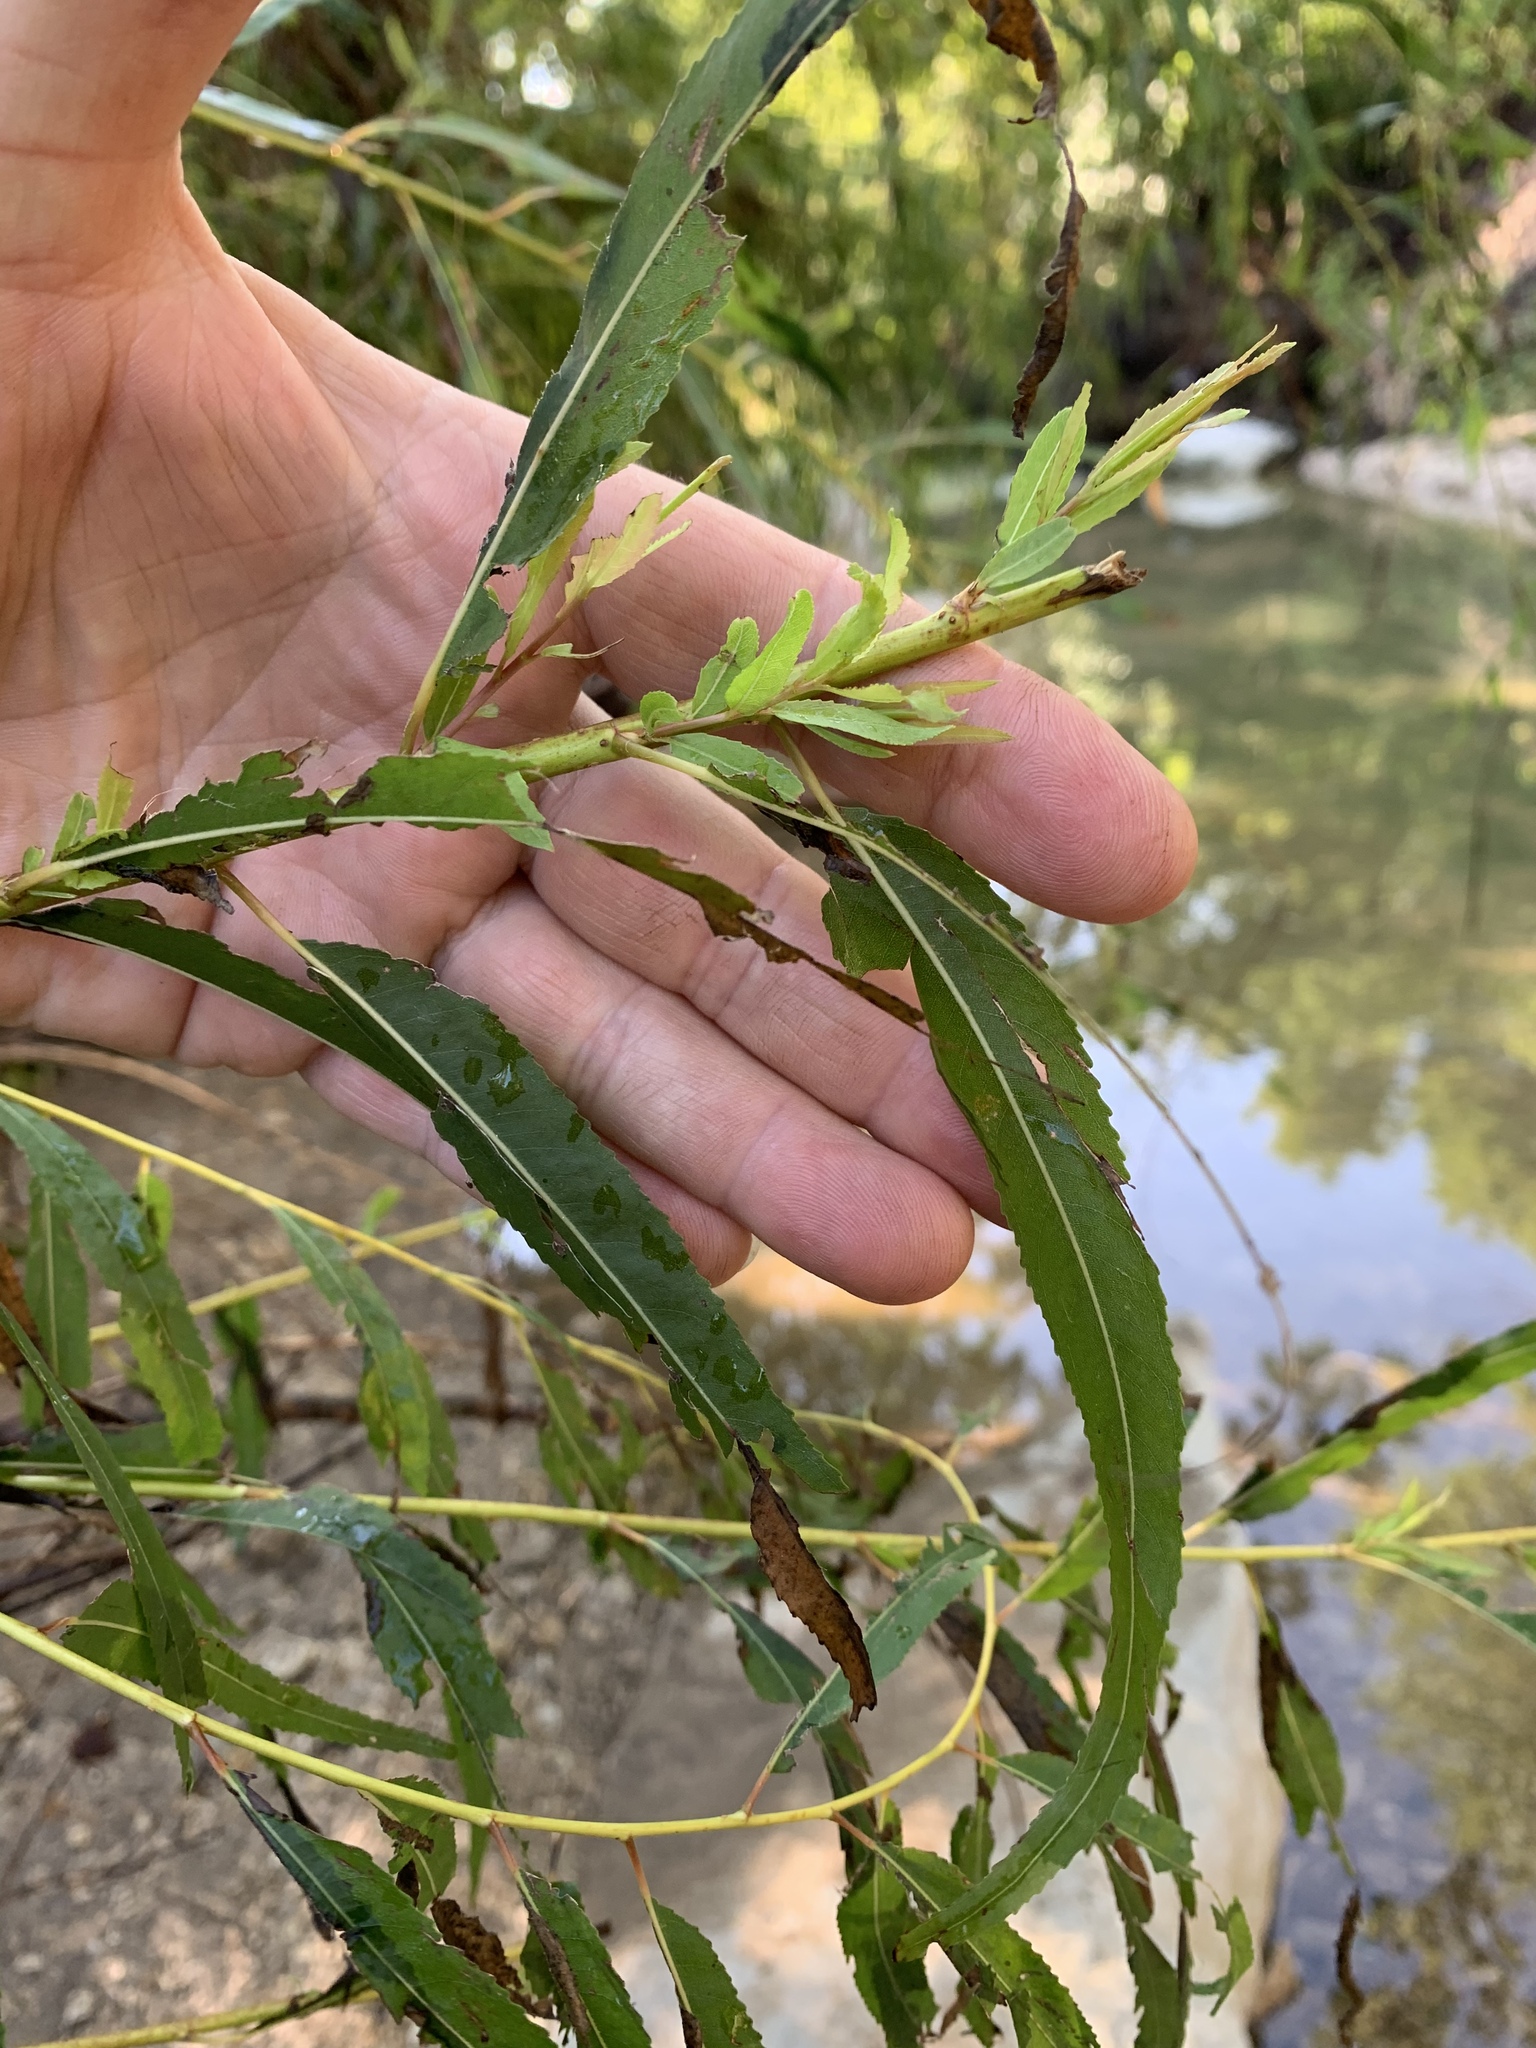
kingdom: Plantae
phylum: Tracheophyta
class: Magnoliopsida
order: Malpighiales
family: Salicaceae
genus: Salix
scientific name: Salix nigra
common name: Black willow
